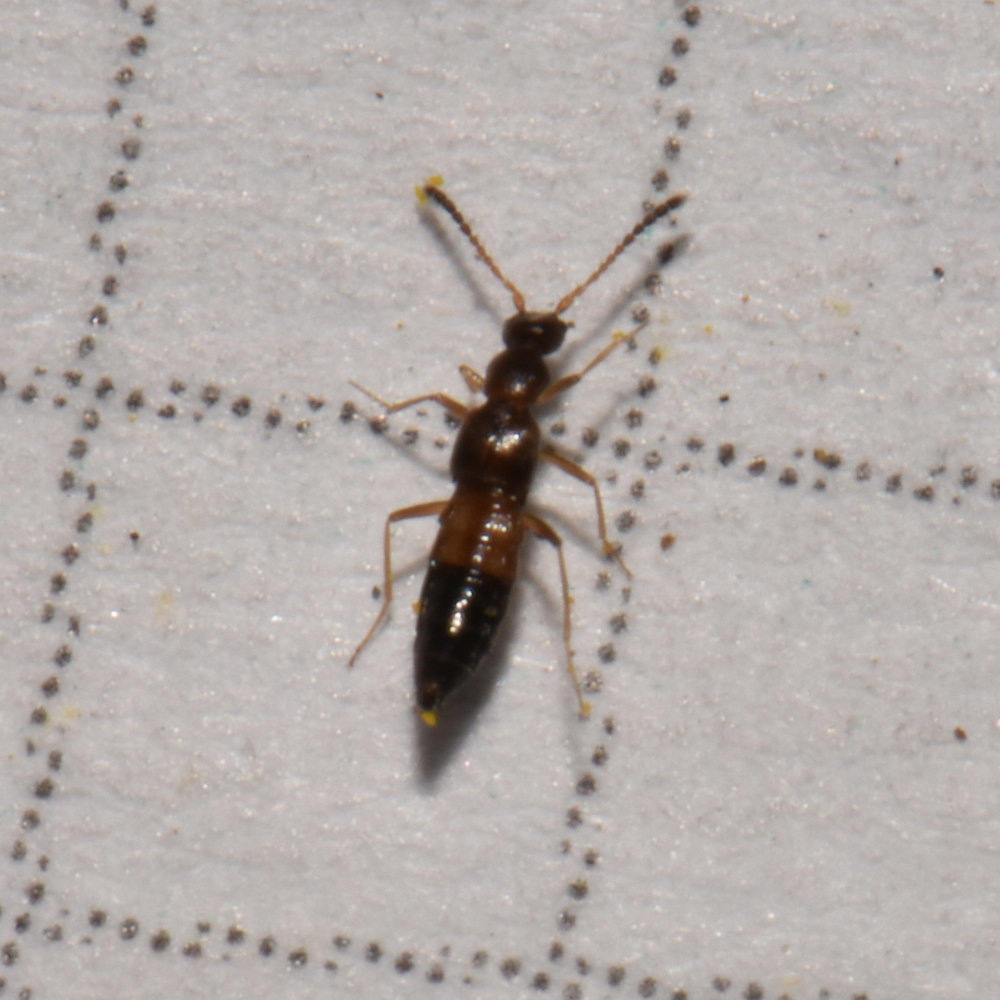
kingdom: Animalia
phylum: Arthropoda
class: Insecta
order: Coleoptera
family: Staphylinidae
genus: Meronera
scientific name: Meronera venustula
